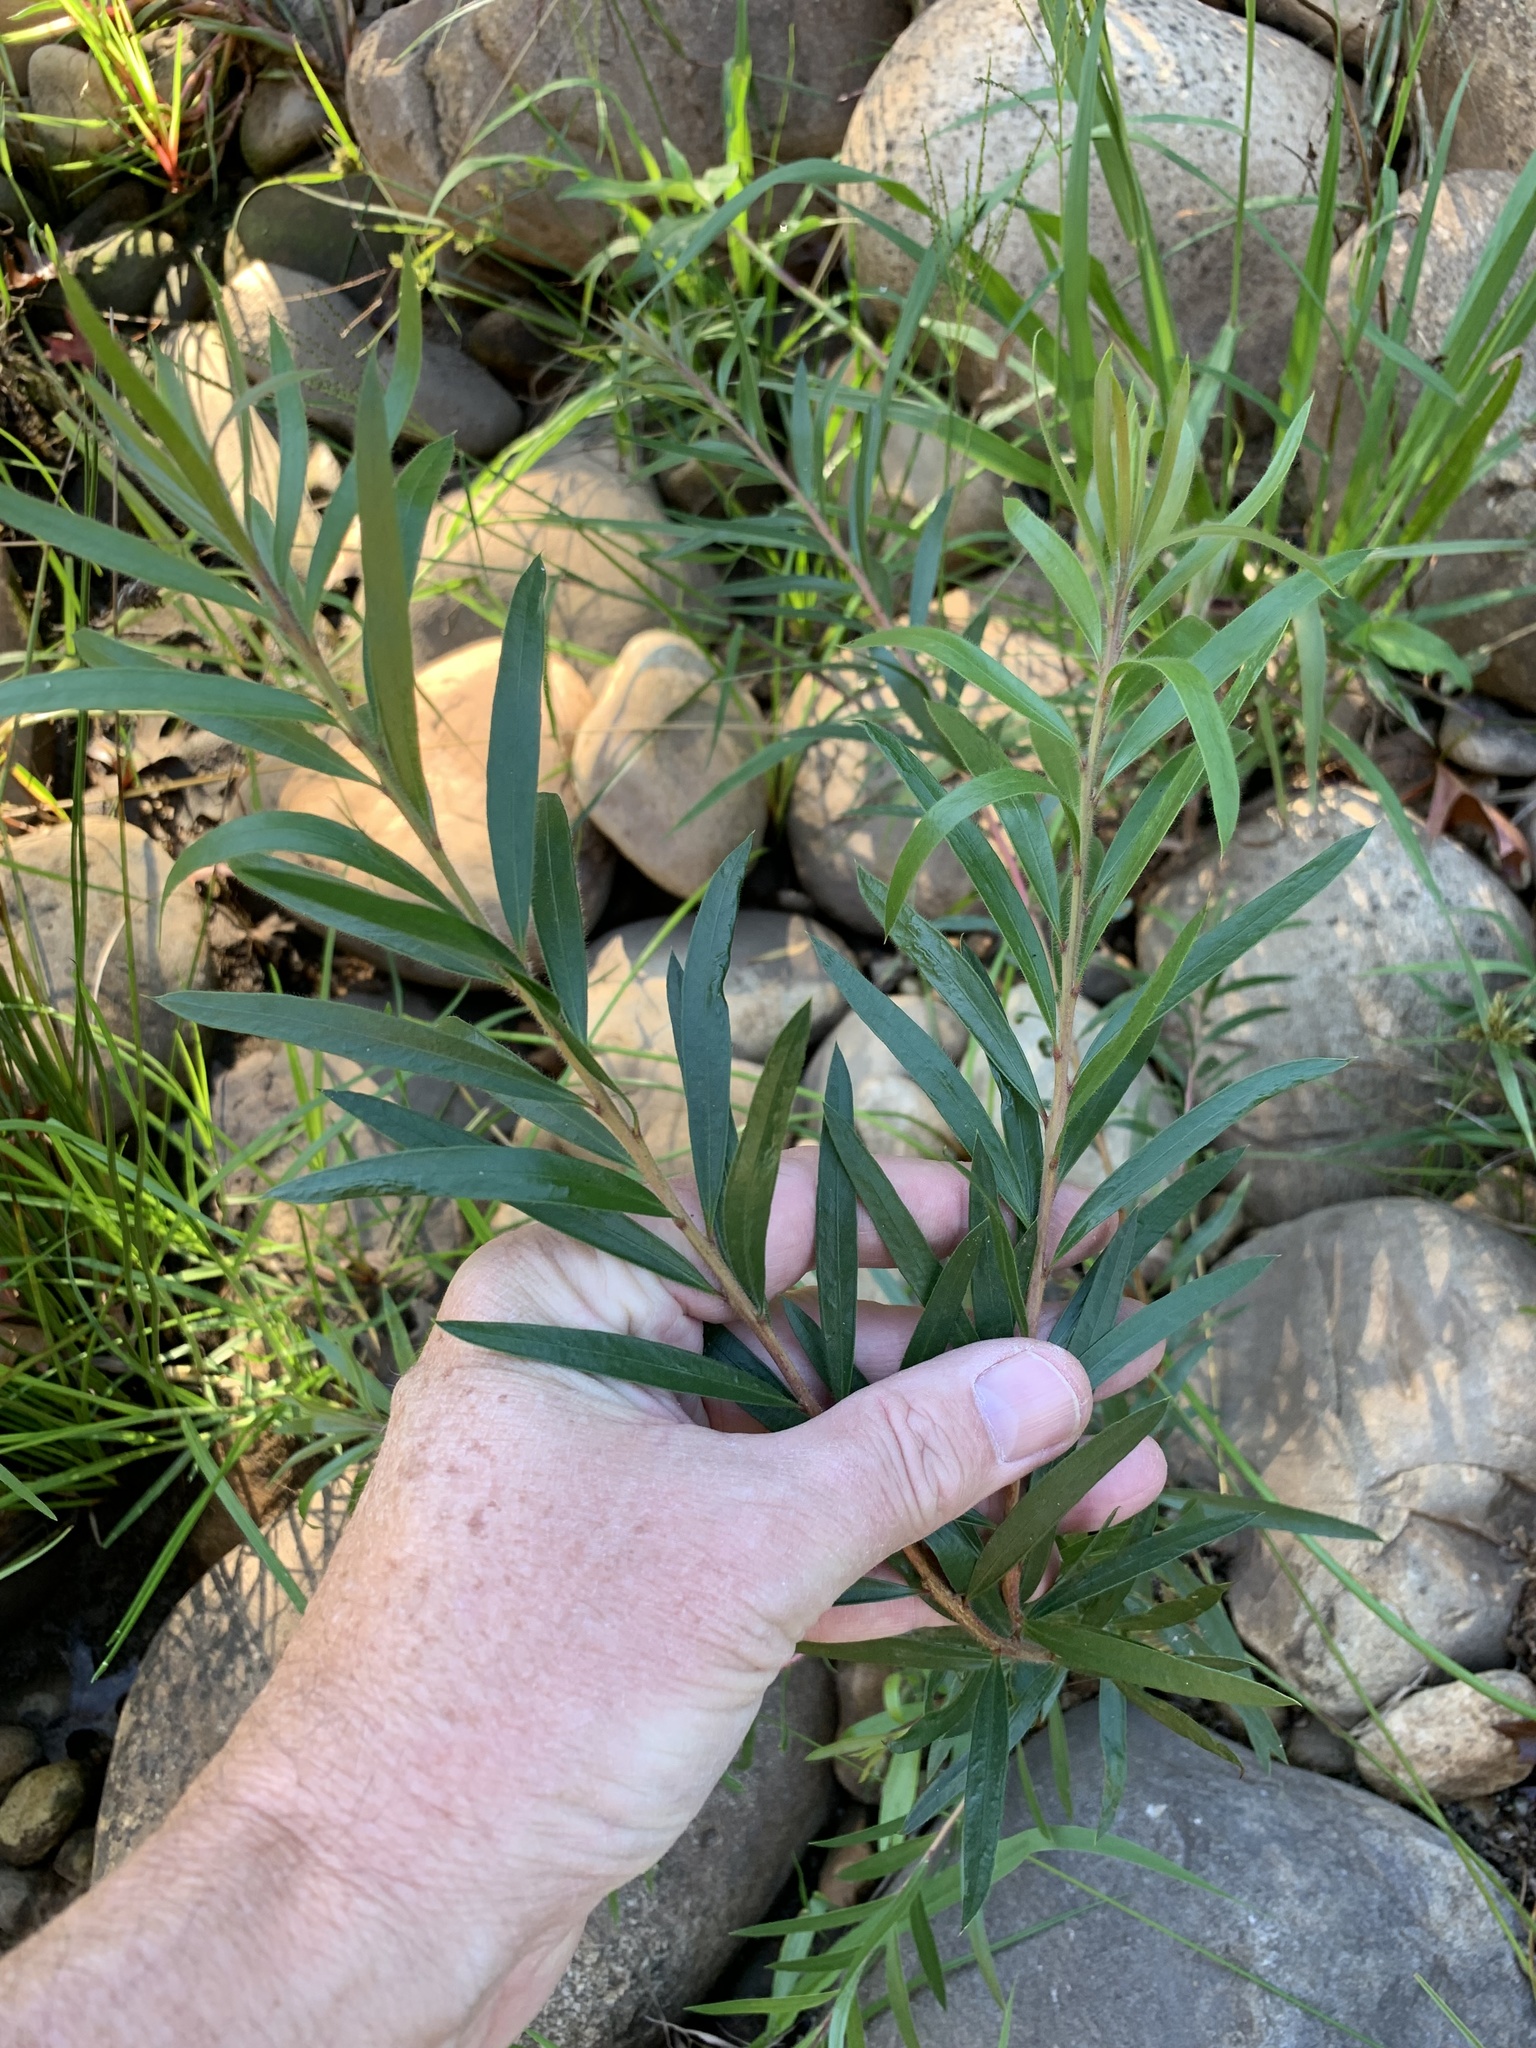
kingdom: Plantae
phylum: Tracheophyta
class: Magnoliopsida
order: Myrtales
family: Myrtaceae
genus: Callistemon
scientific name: Callistemon viminalis
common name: Drooping bottlebrush
